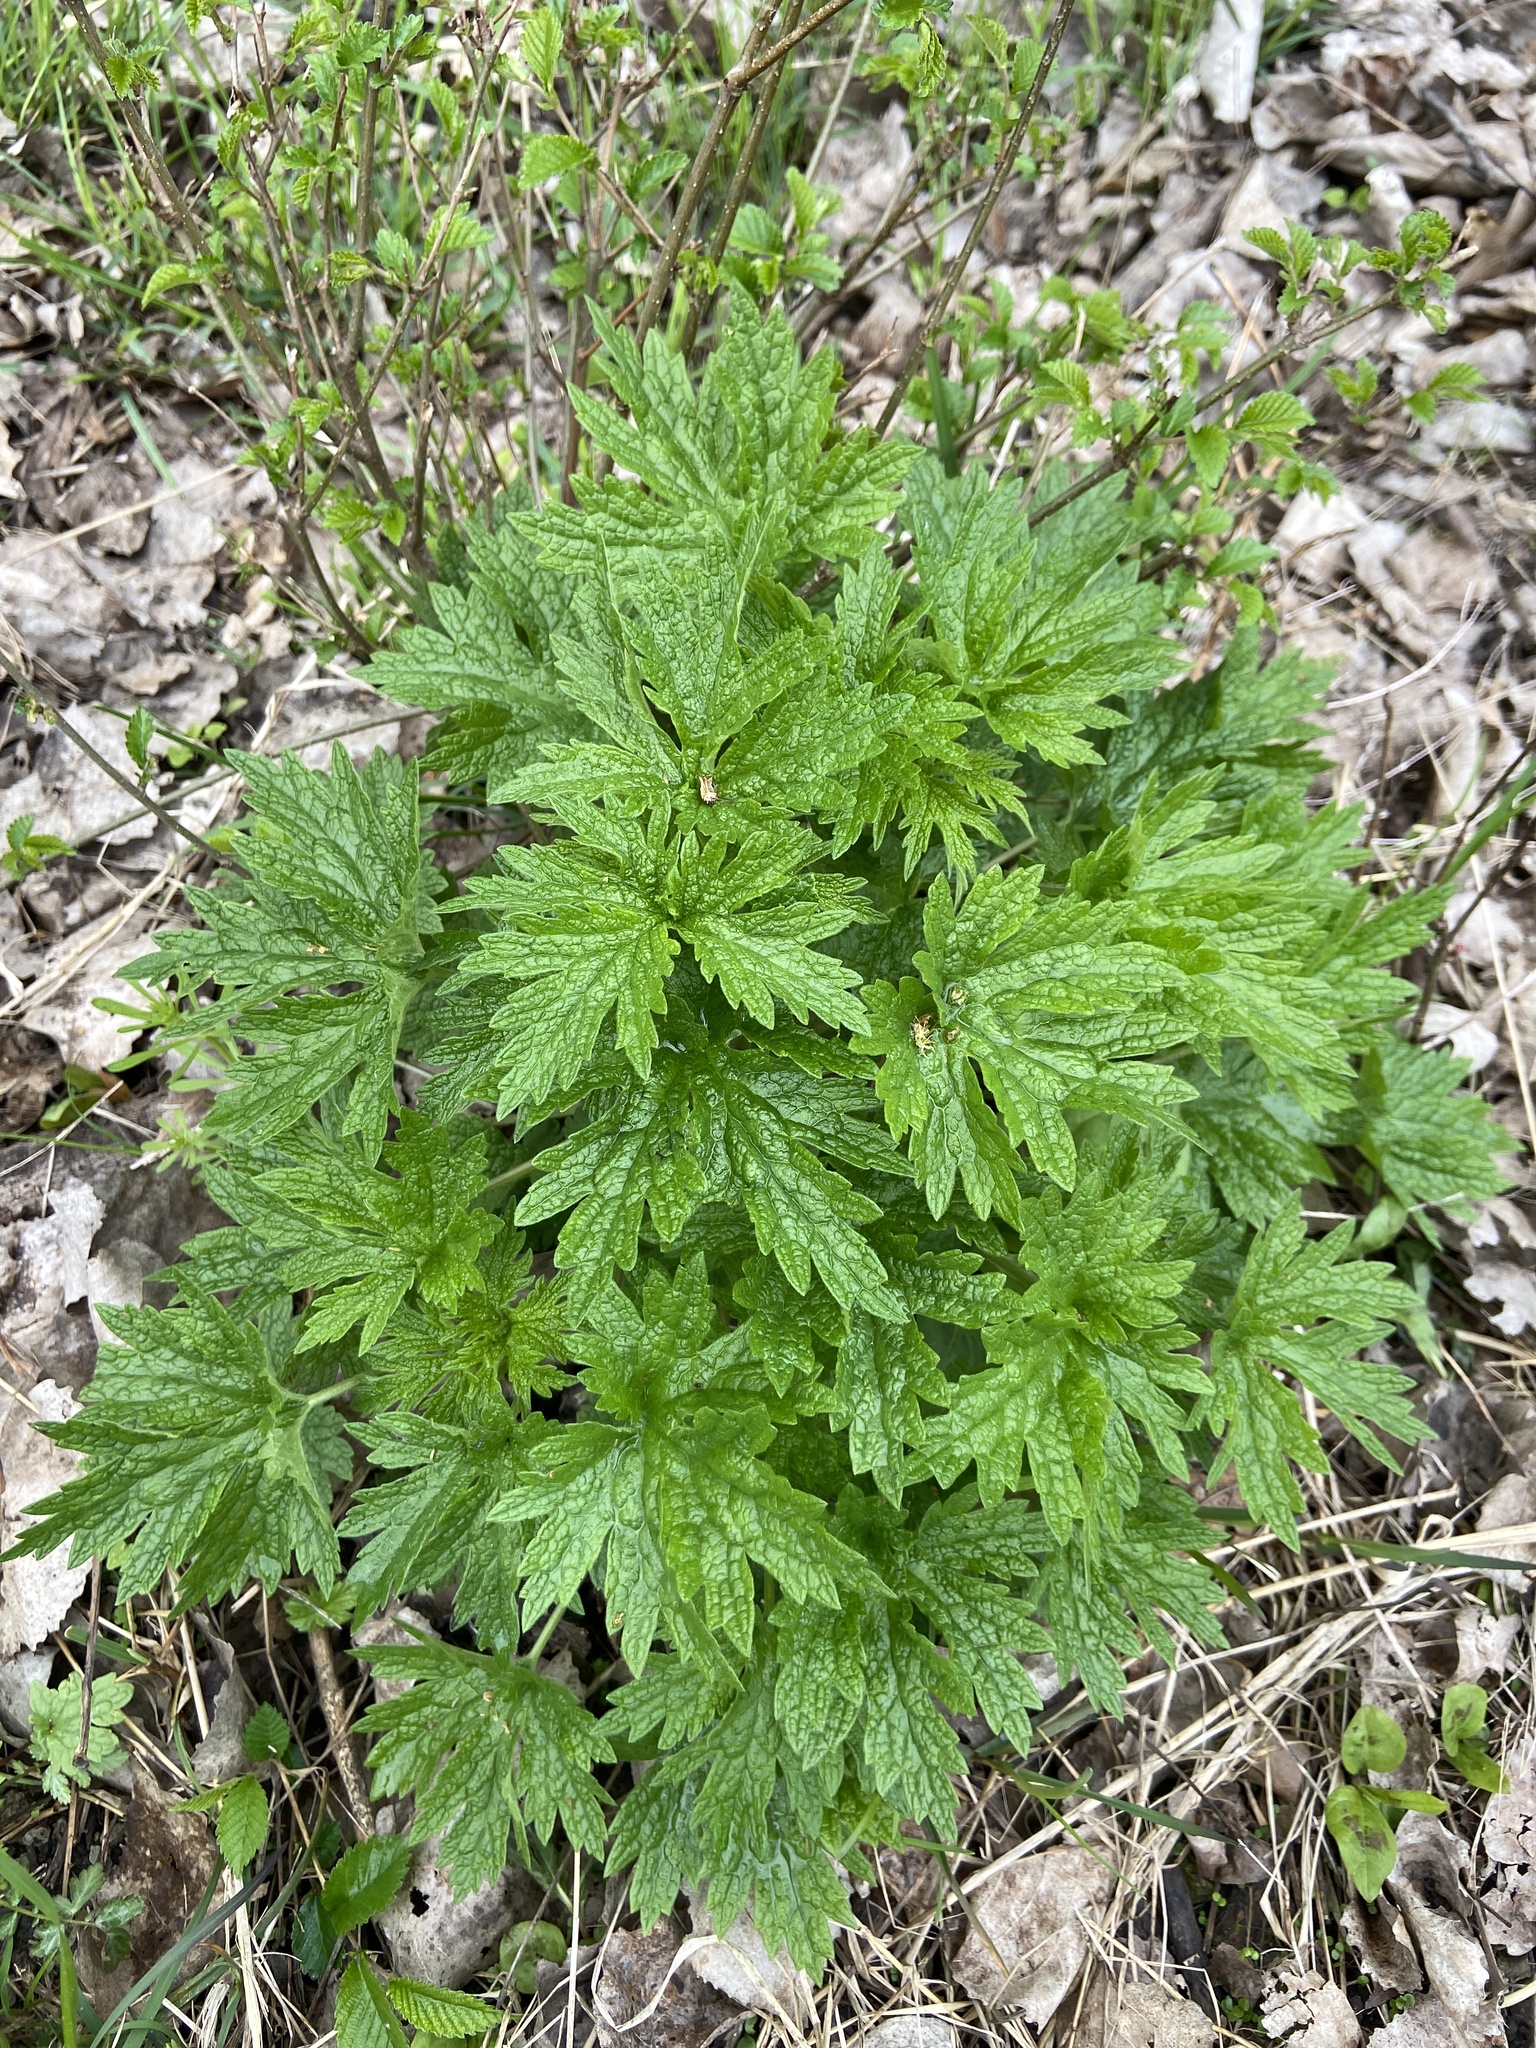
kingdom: Plantae
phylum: Tracheophyta
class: Magnoliopsida
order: Lamiales
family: Lamiaceae
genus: Leonurus
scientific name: Leonurus cardiaca
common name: Motherwort
